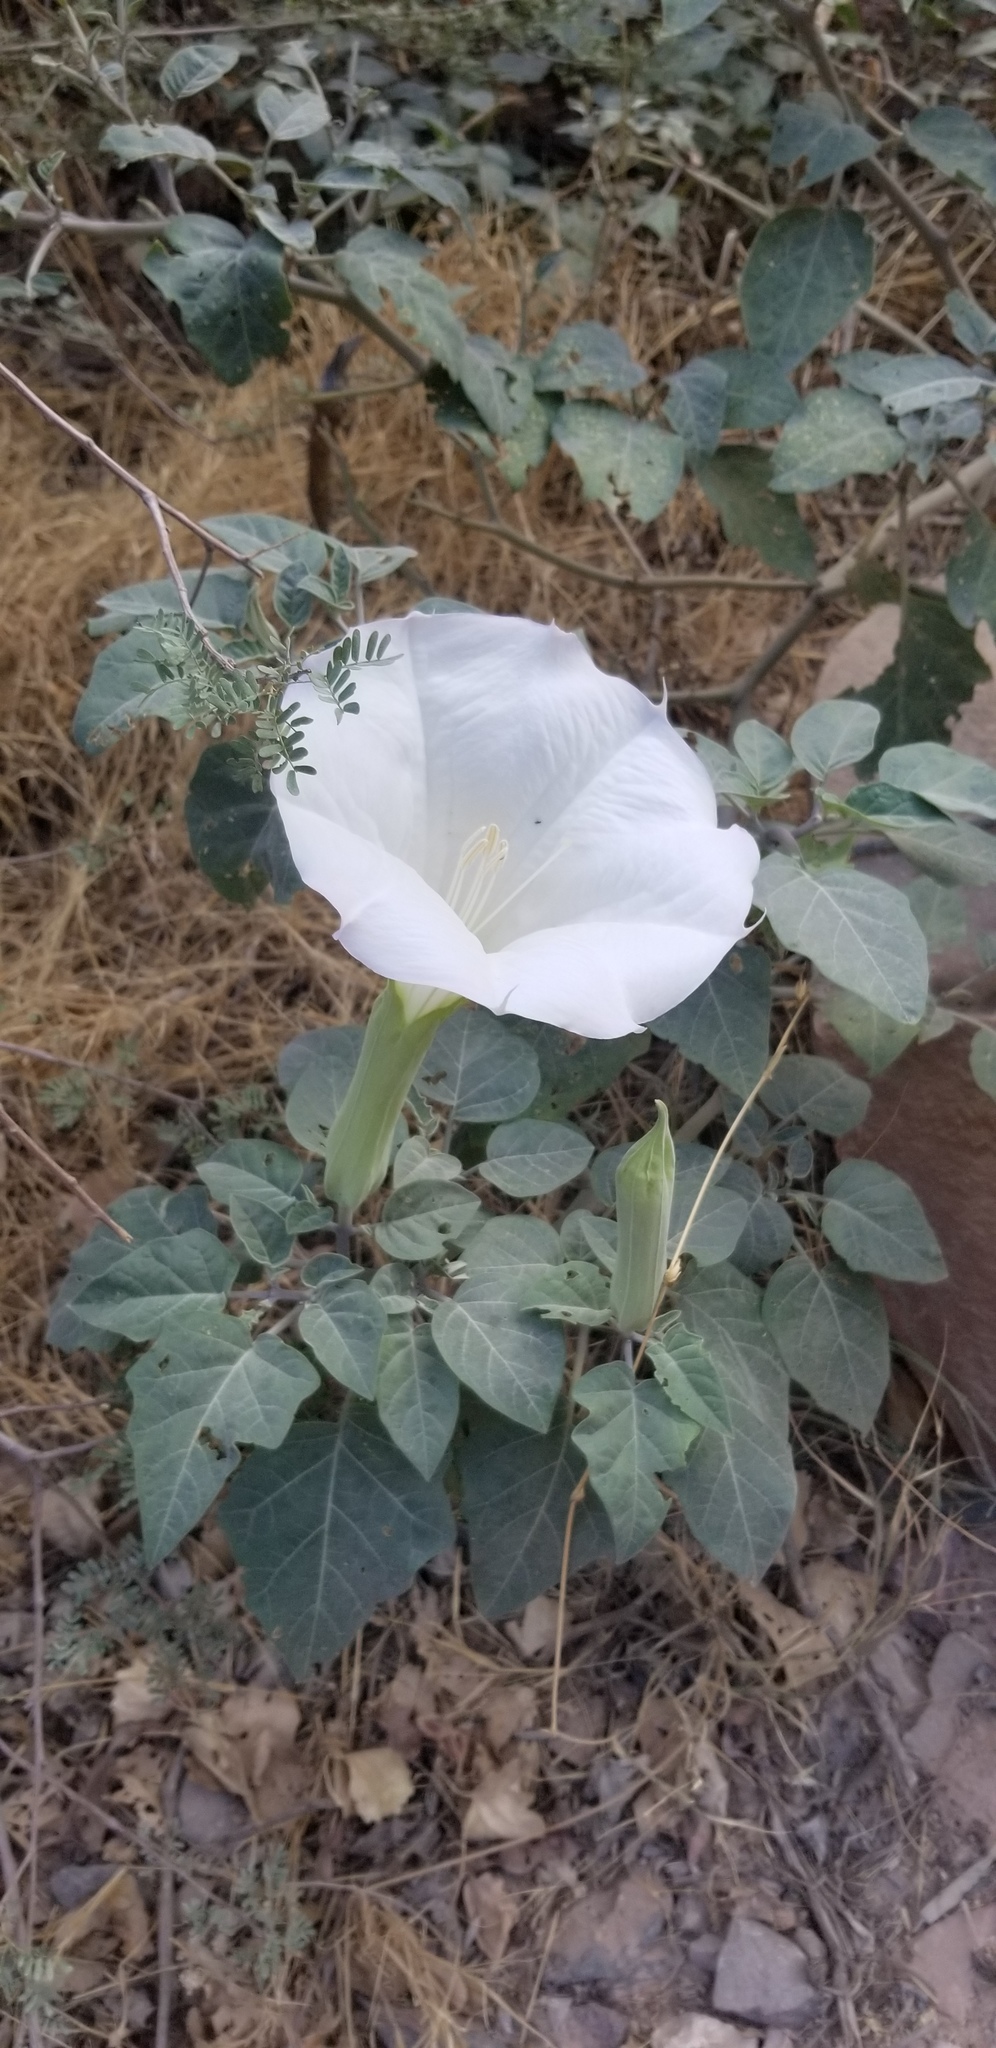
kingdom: Plantae
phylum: Tracheophyta
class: Magnoliopsida
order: Solanales
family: Solanaceae
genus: Datura
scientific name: Datura wrightii
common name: Sacred thorn-apple
